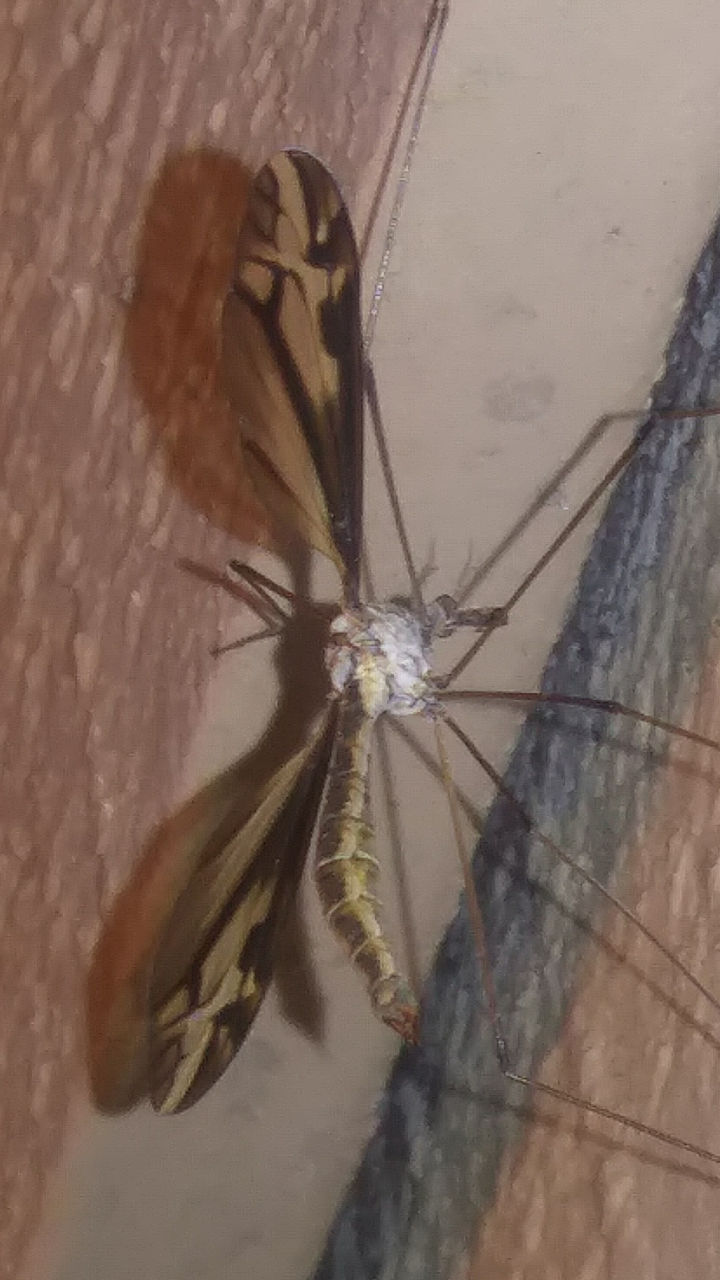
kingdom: Animalia
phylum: Arthropoda
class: Insecta
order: Diptera
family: Tipulidae
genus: Tipula
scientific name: Tipula furca
